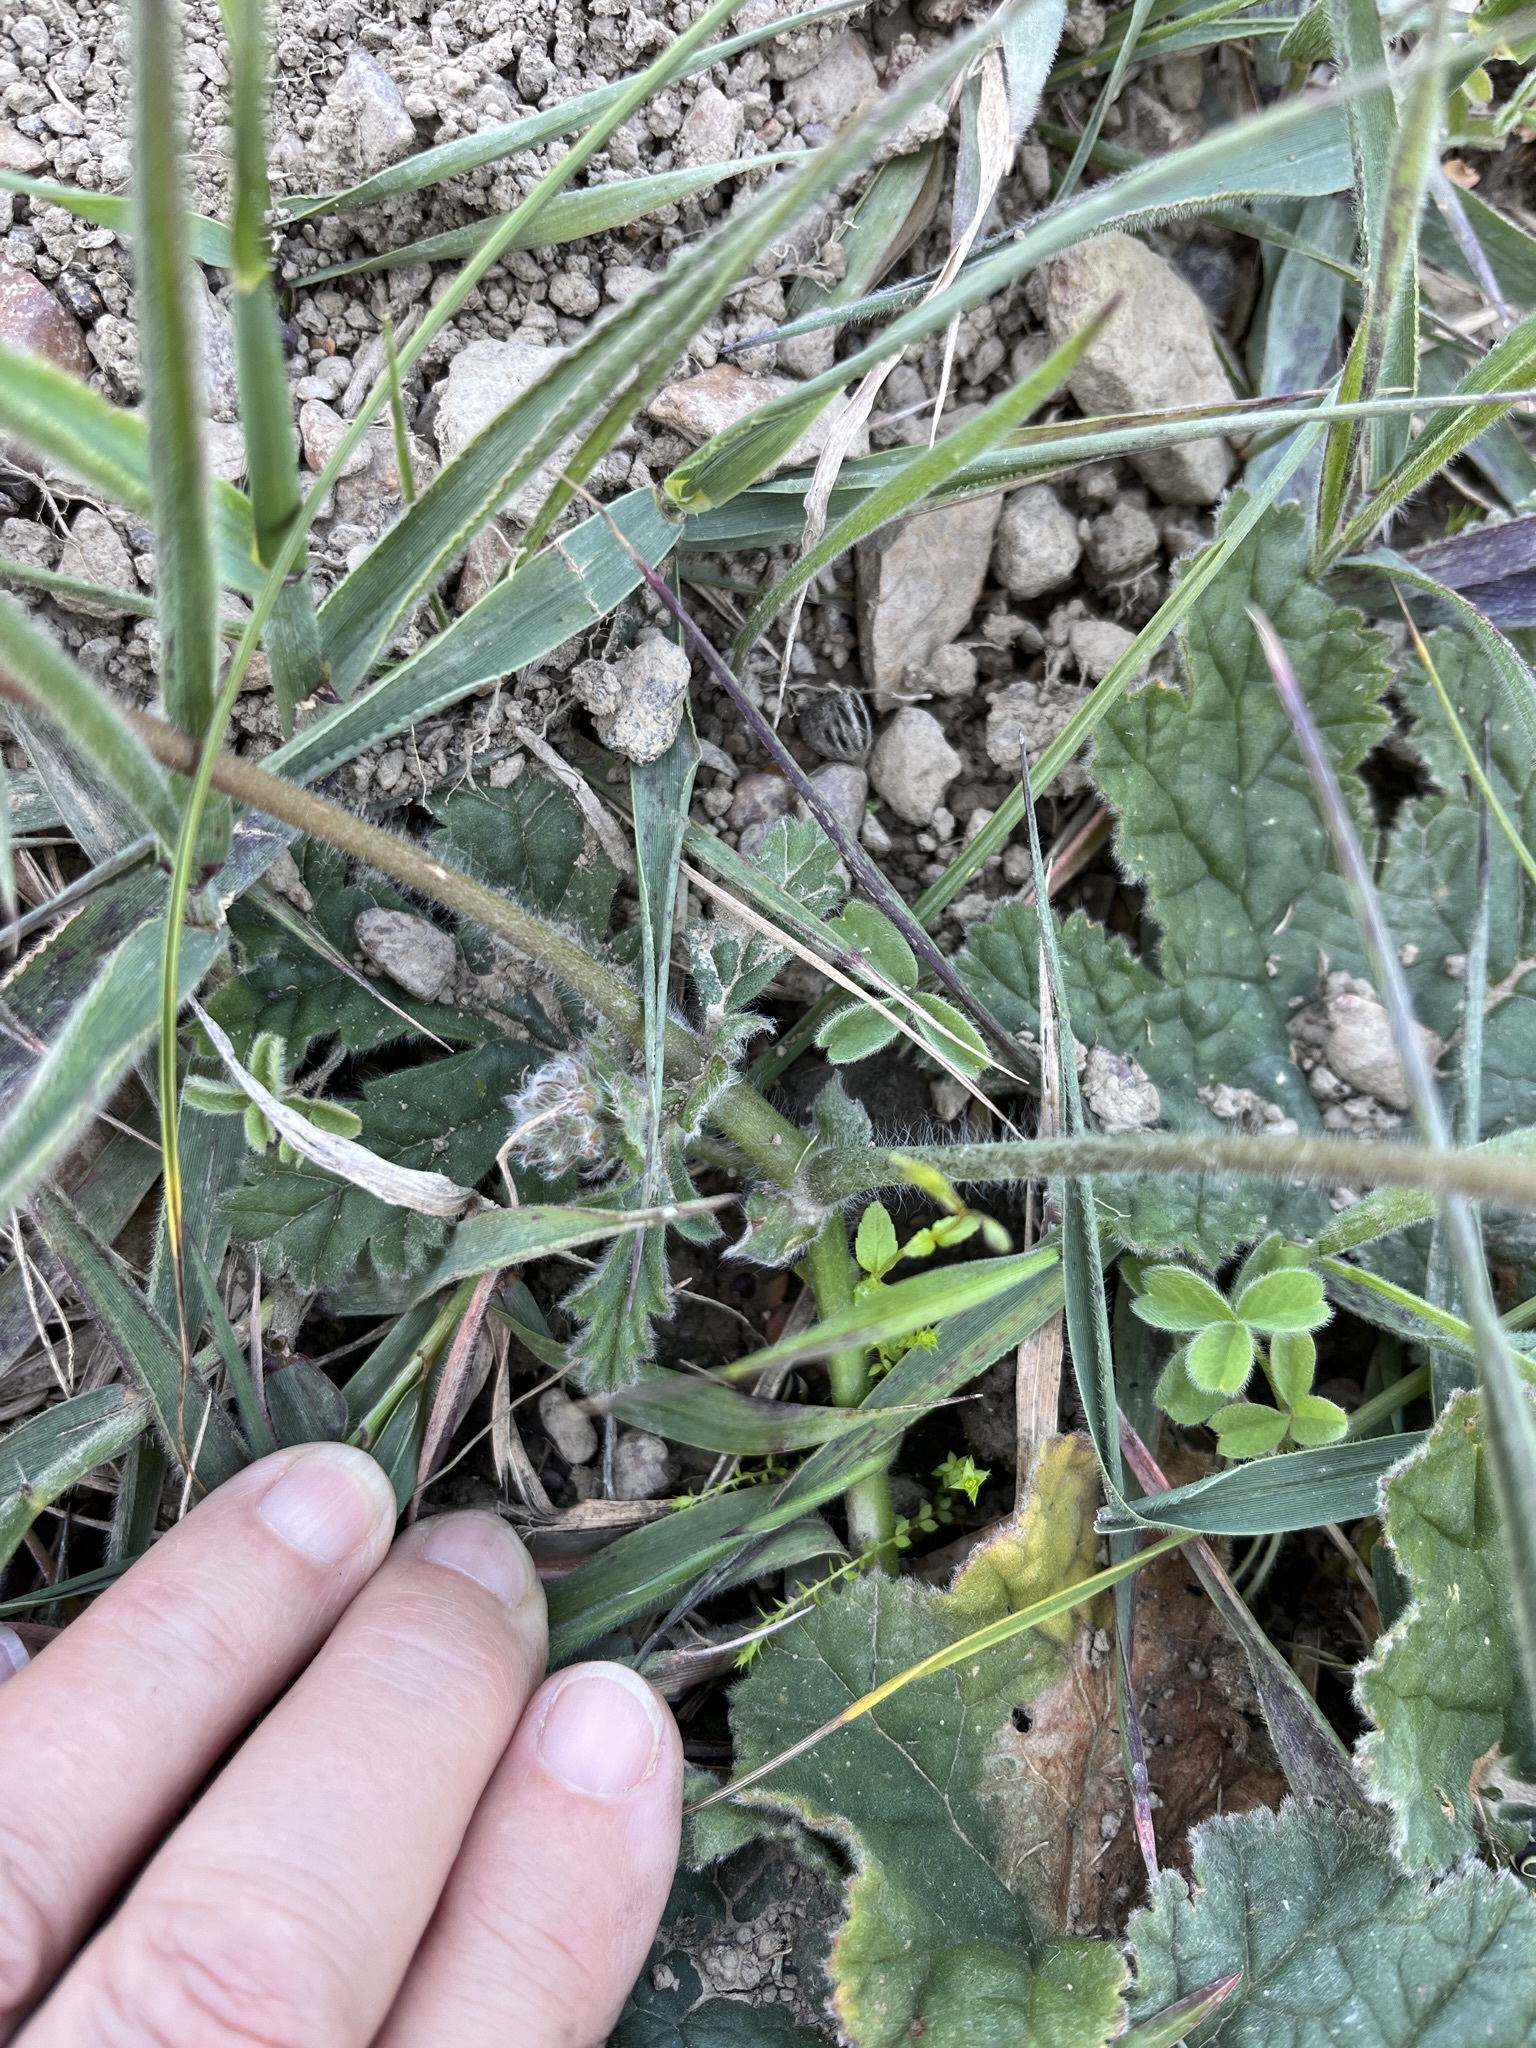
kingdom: Plantae
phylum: Tracheophyta
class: Magnoliopsida
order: Geraniales
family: Geraniaceae
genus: Pelargonium
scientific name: Pelargonium lobatum
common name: Vine-leaf pelargonium
